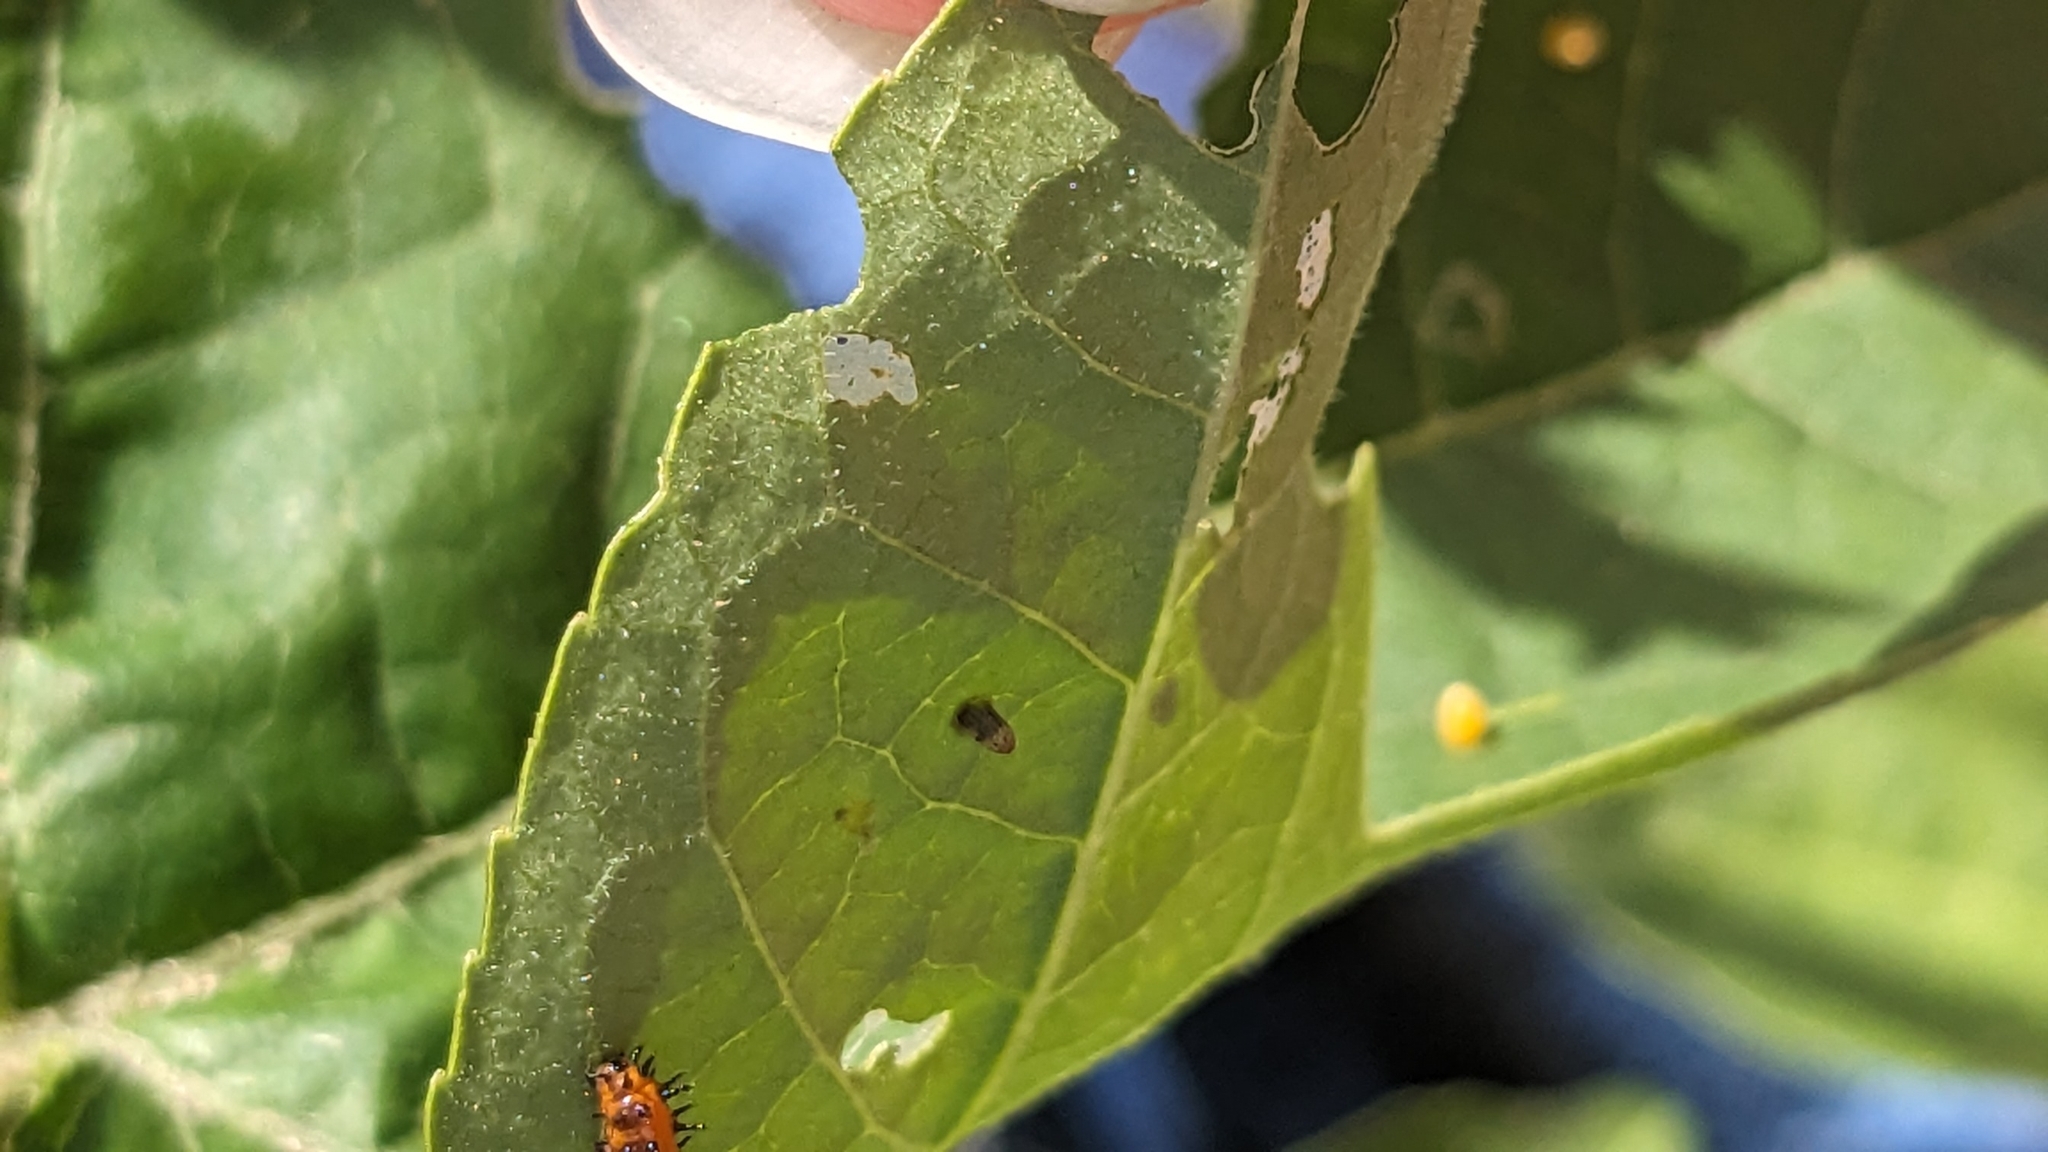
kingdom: Animalia
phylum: Arthropoda
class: Insecta
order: Lepidoptera
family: Nymphalidae
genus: Dione
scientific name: Dione vanillae
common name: Gulf fritillary
